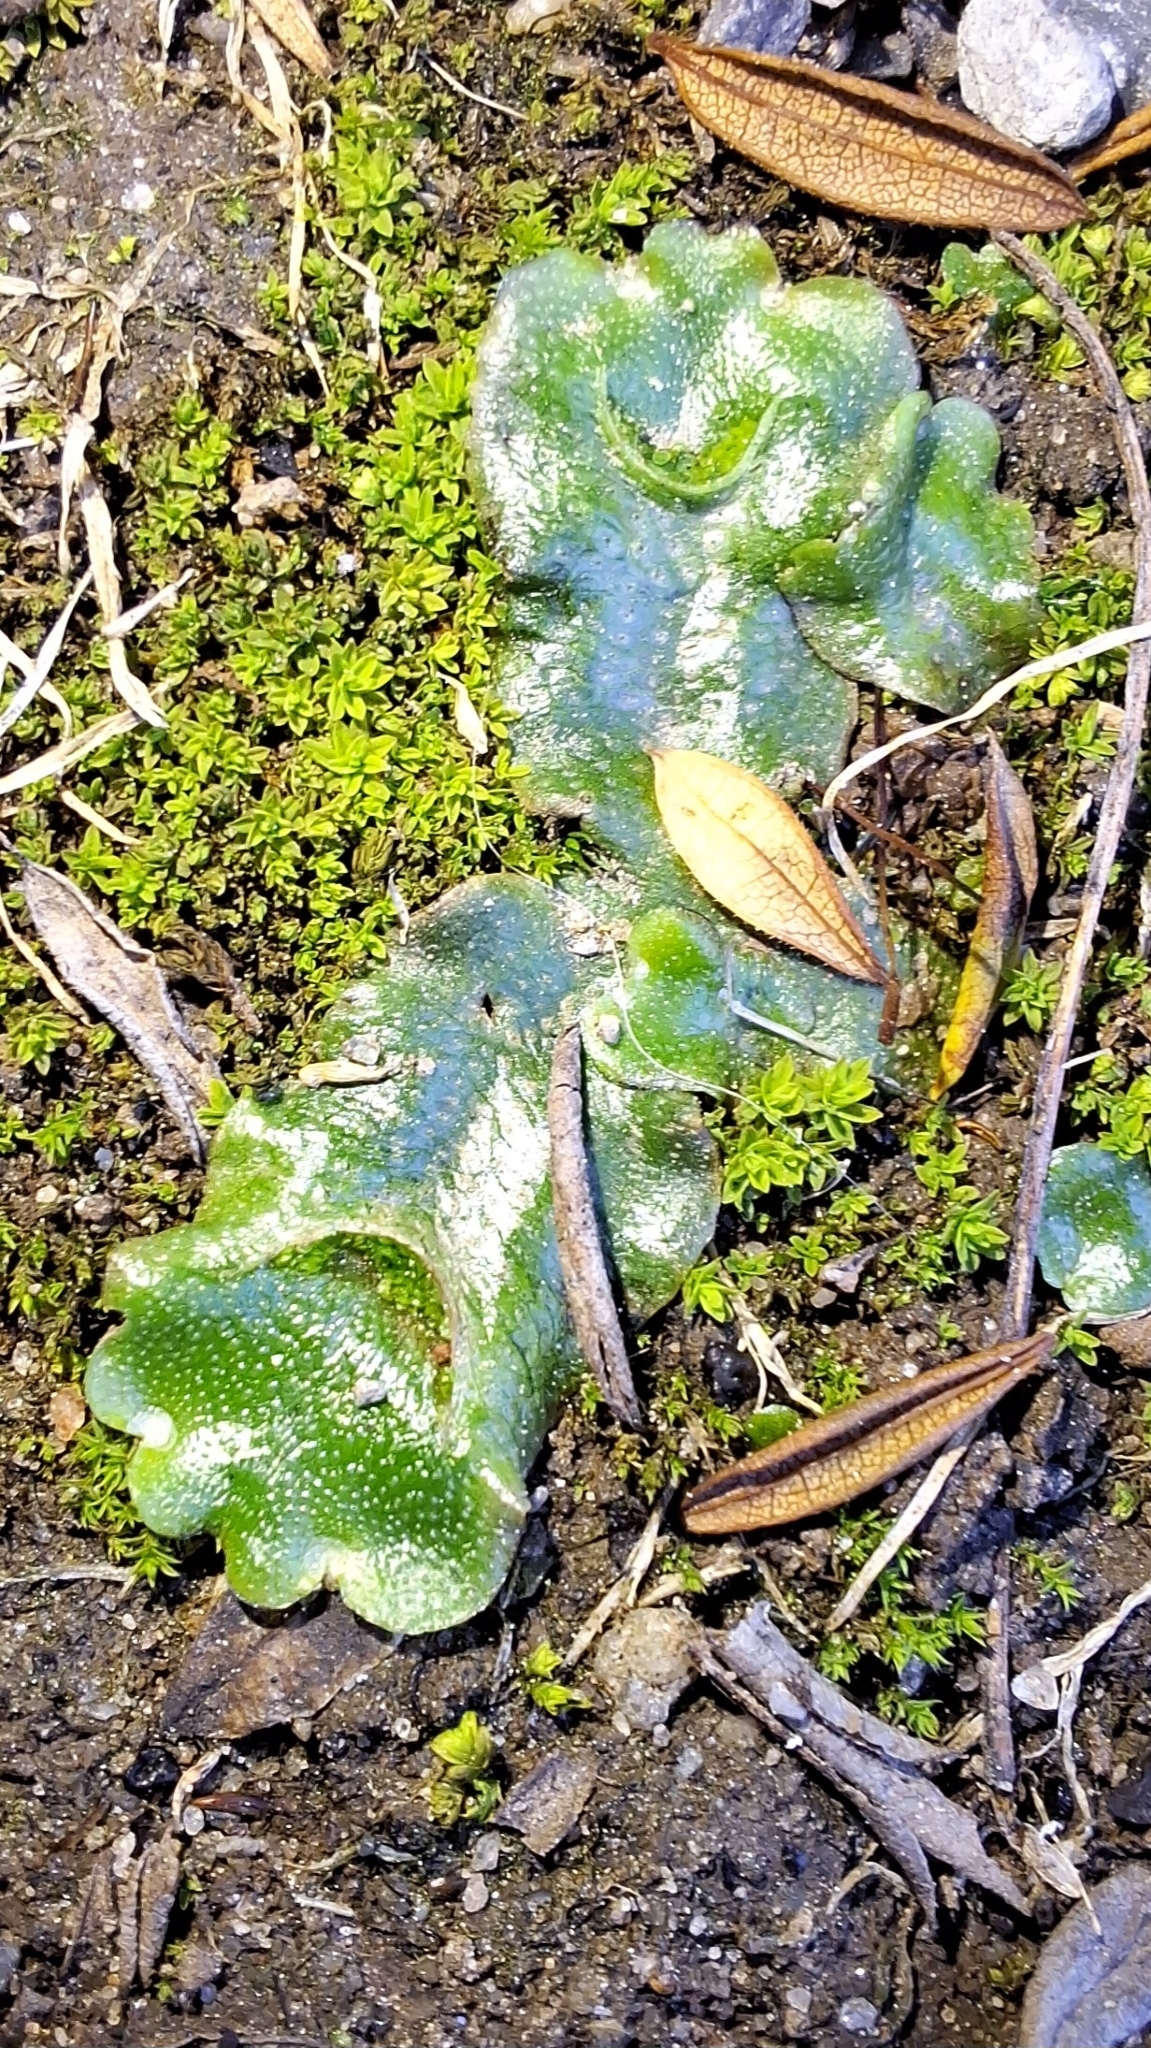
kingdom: Plantae
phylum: Marchantiophyta
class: Marchantiopsida
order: Lunulariales
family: Lunulariaceae
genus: Lunularia
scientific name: Lunularia cruciata
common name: Crescent-cup liverwort
